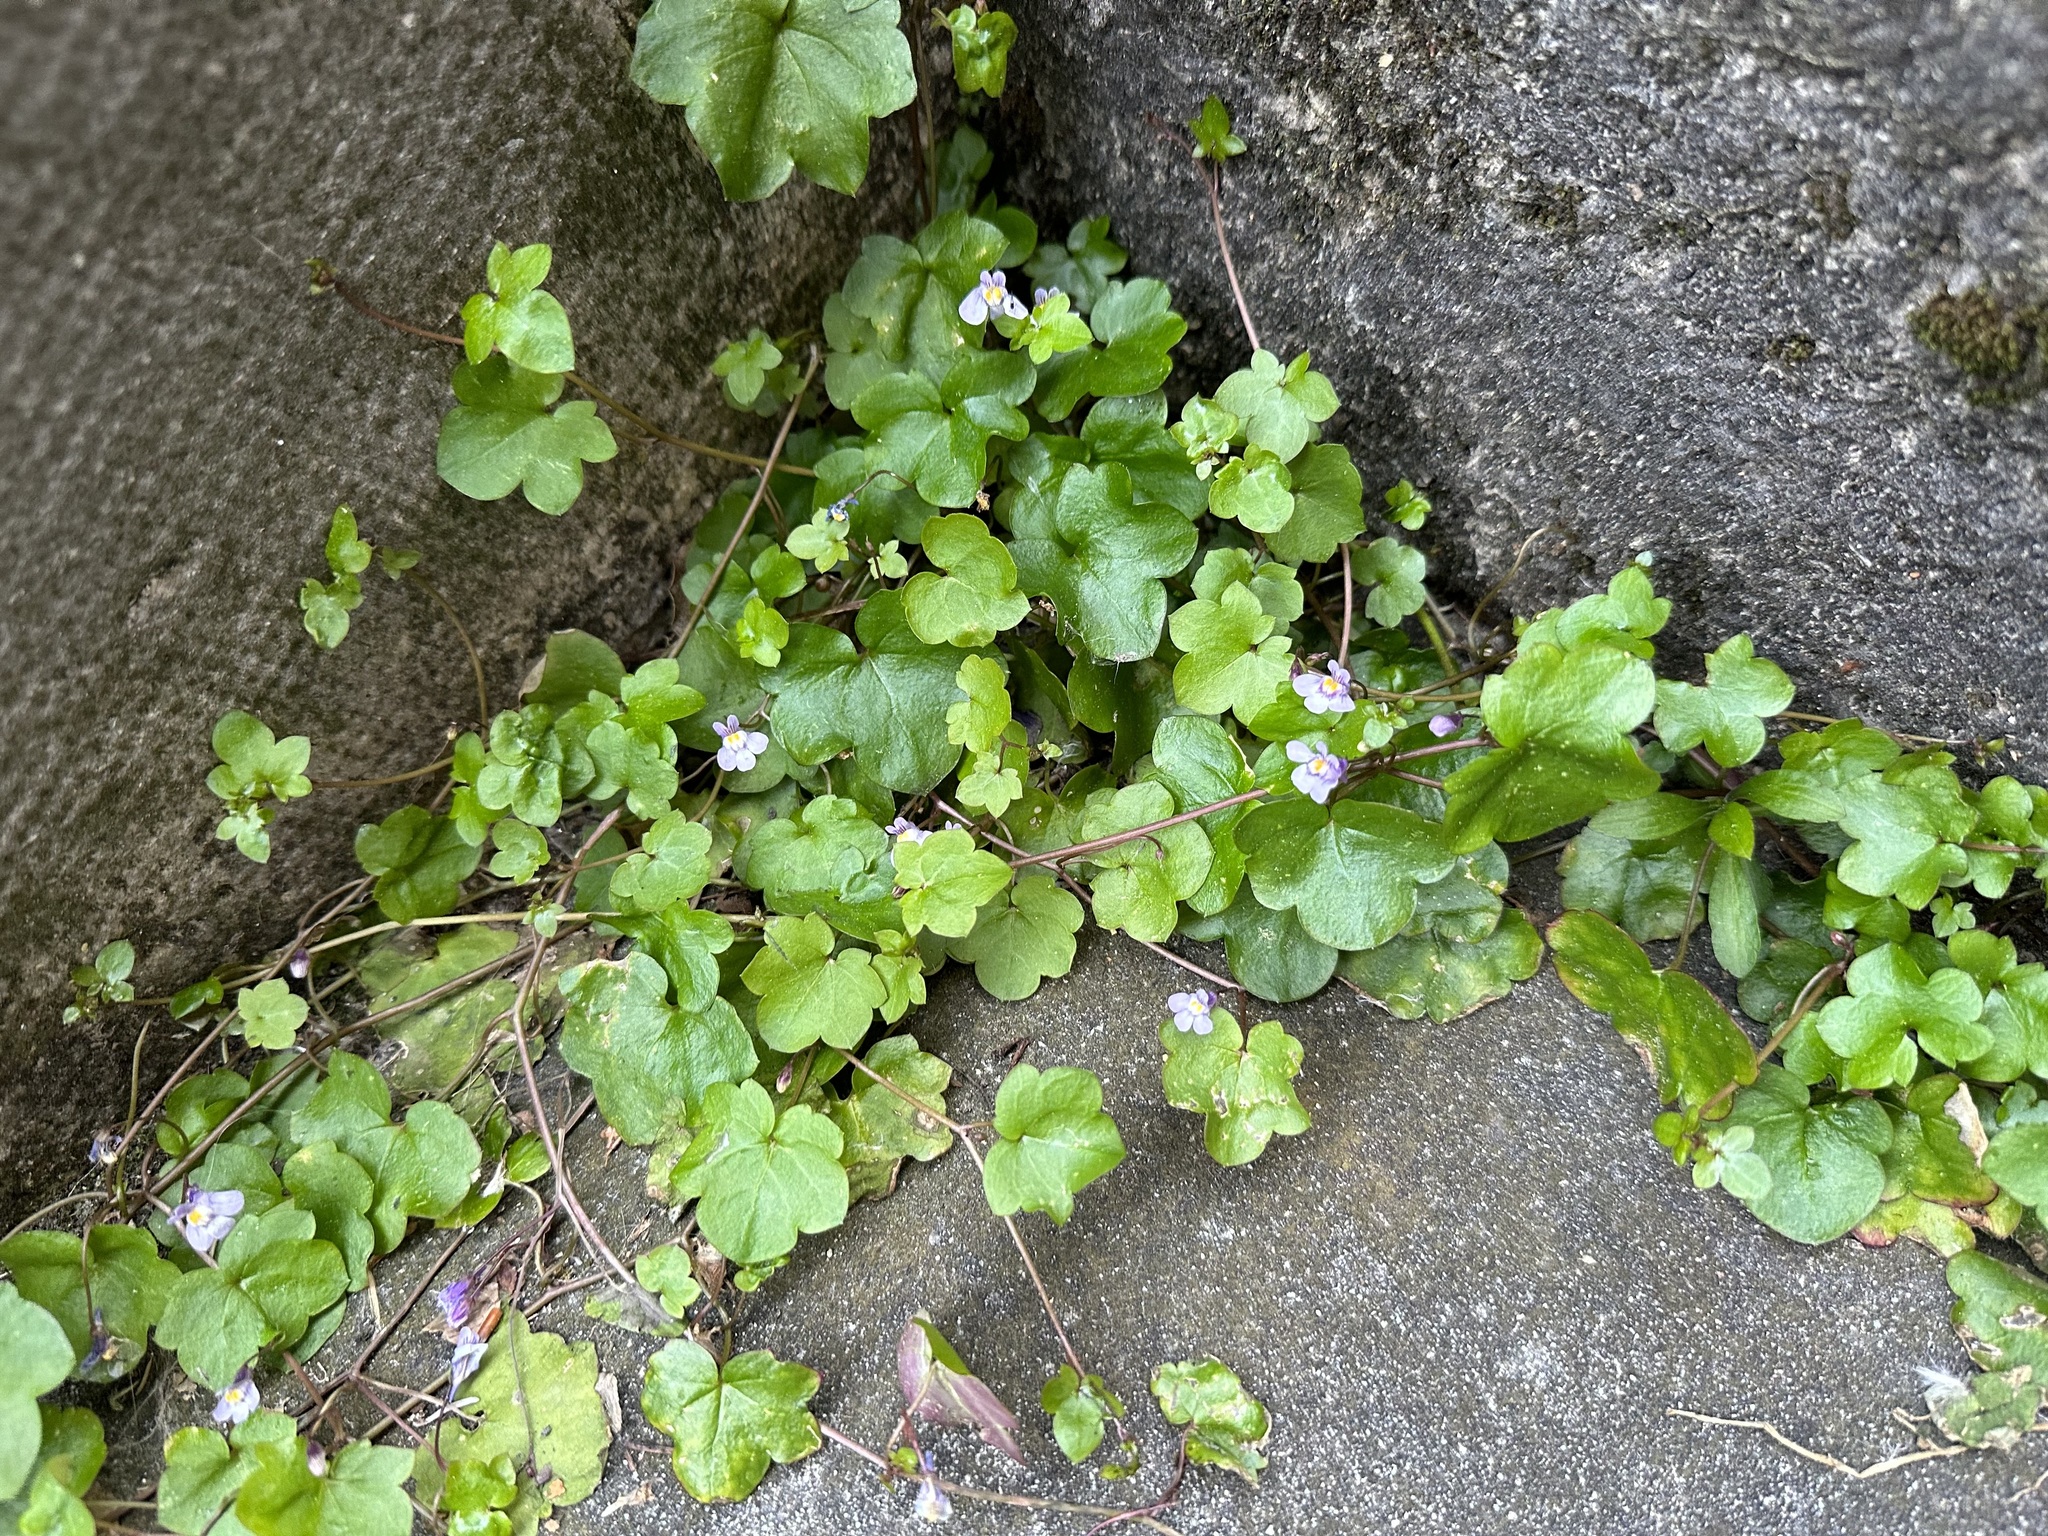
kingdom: Plantae
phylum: Tracheophyta
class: Magnoliopsida
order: Lamiales
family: Plantaginaceae
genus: Cymbalaria
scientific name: Cymbalaria muralis
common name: Ivy-leaved toadflax
